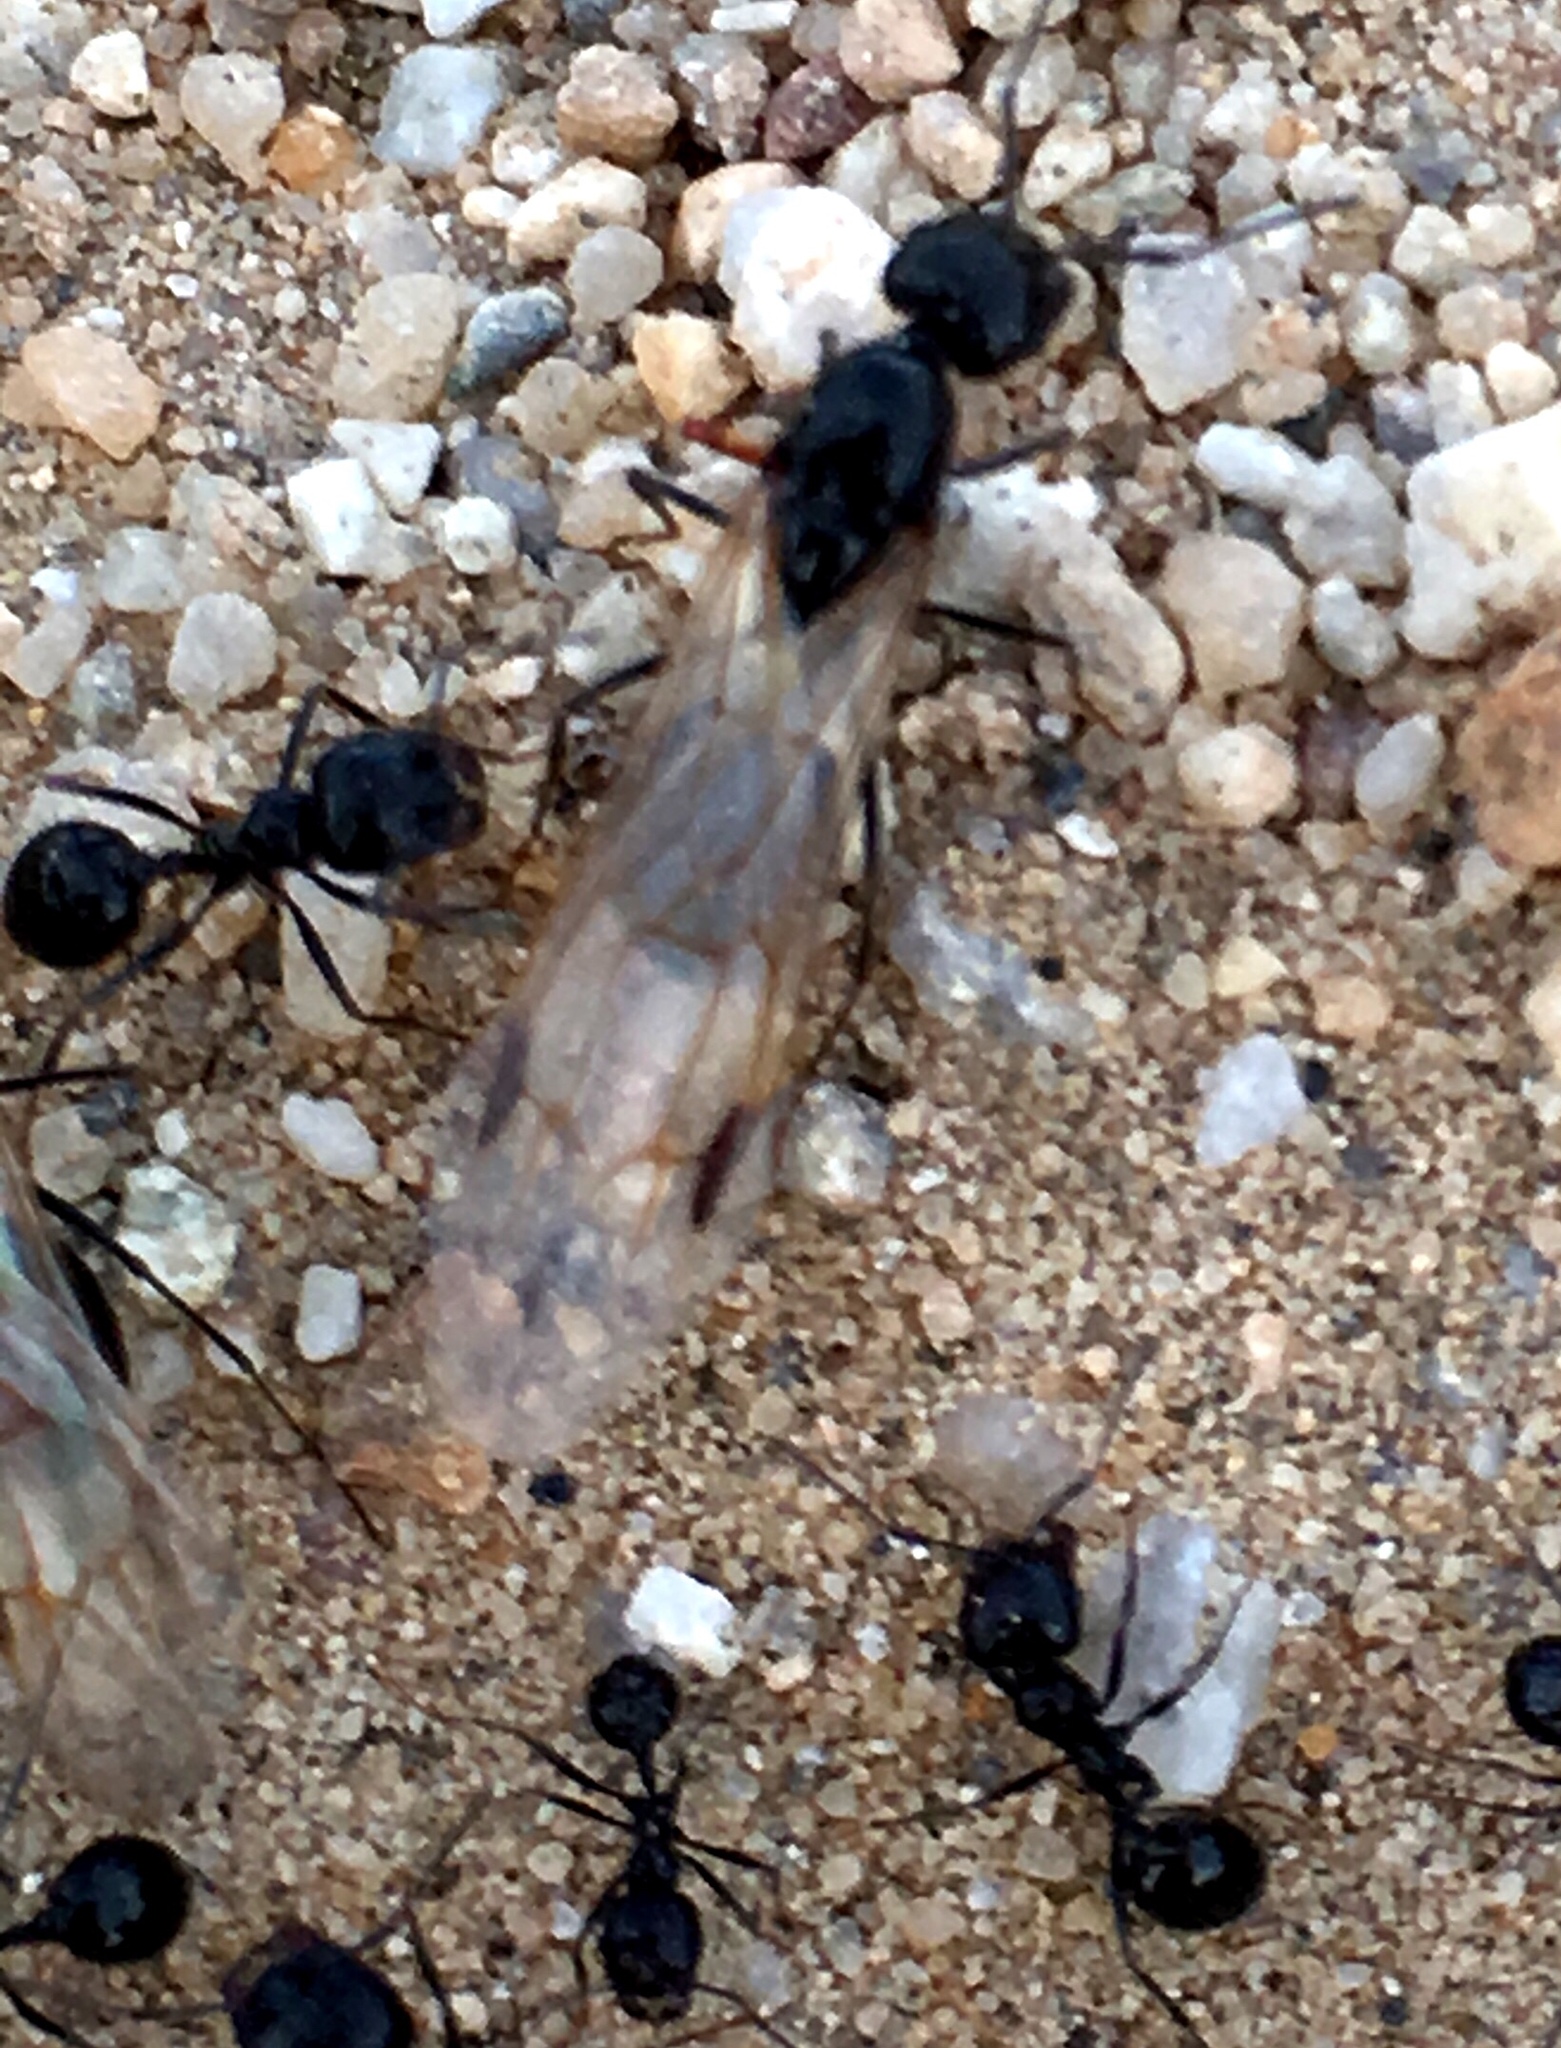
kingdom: Animalia
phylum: Arthropoda
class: Insecta
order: Hymenoptera
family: Formicidae
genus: Messor
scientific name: Messor pergandei
